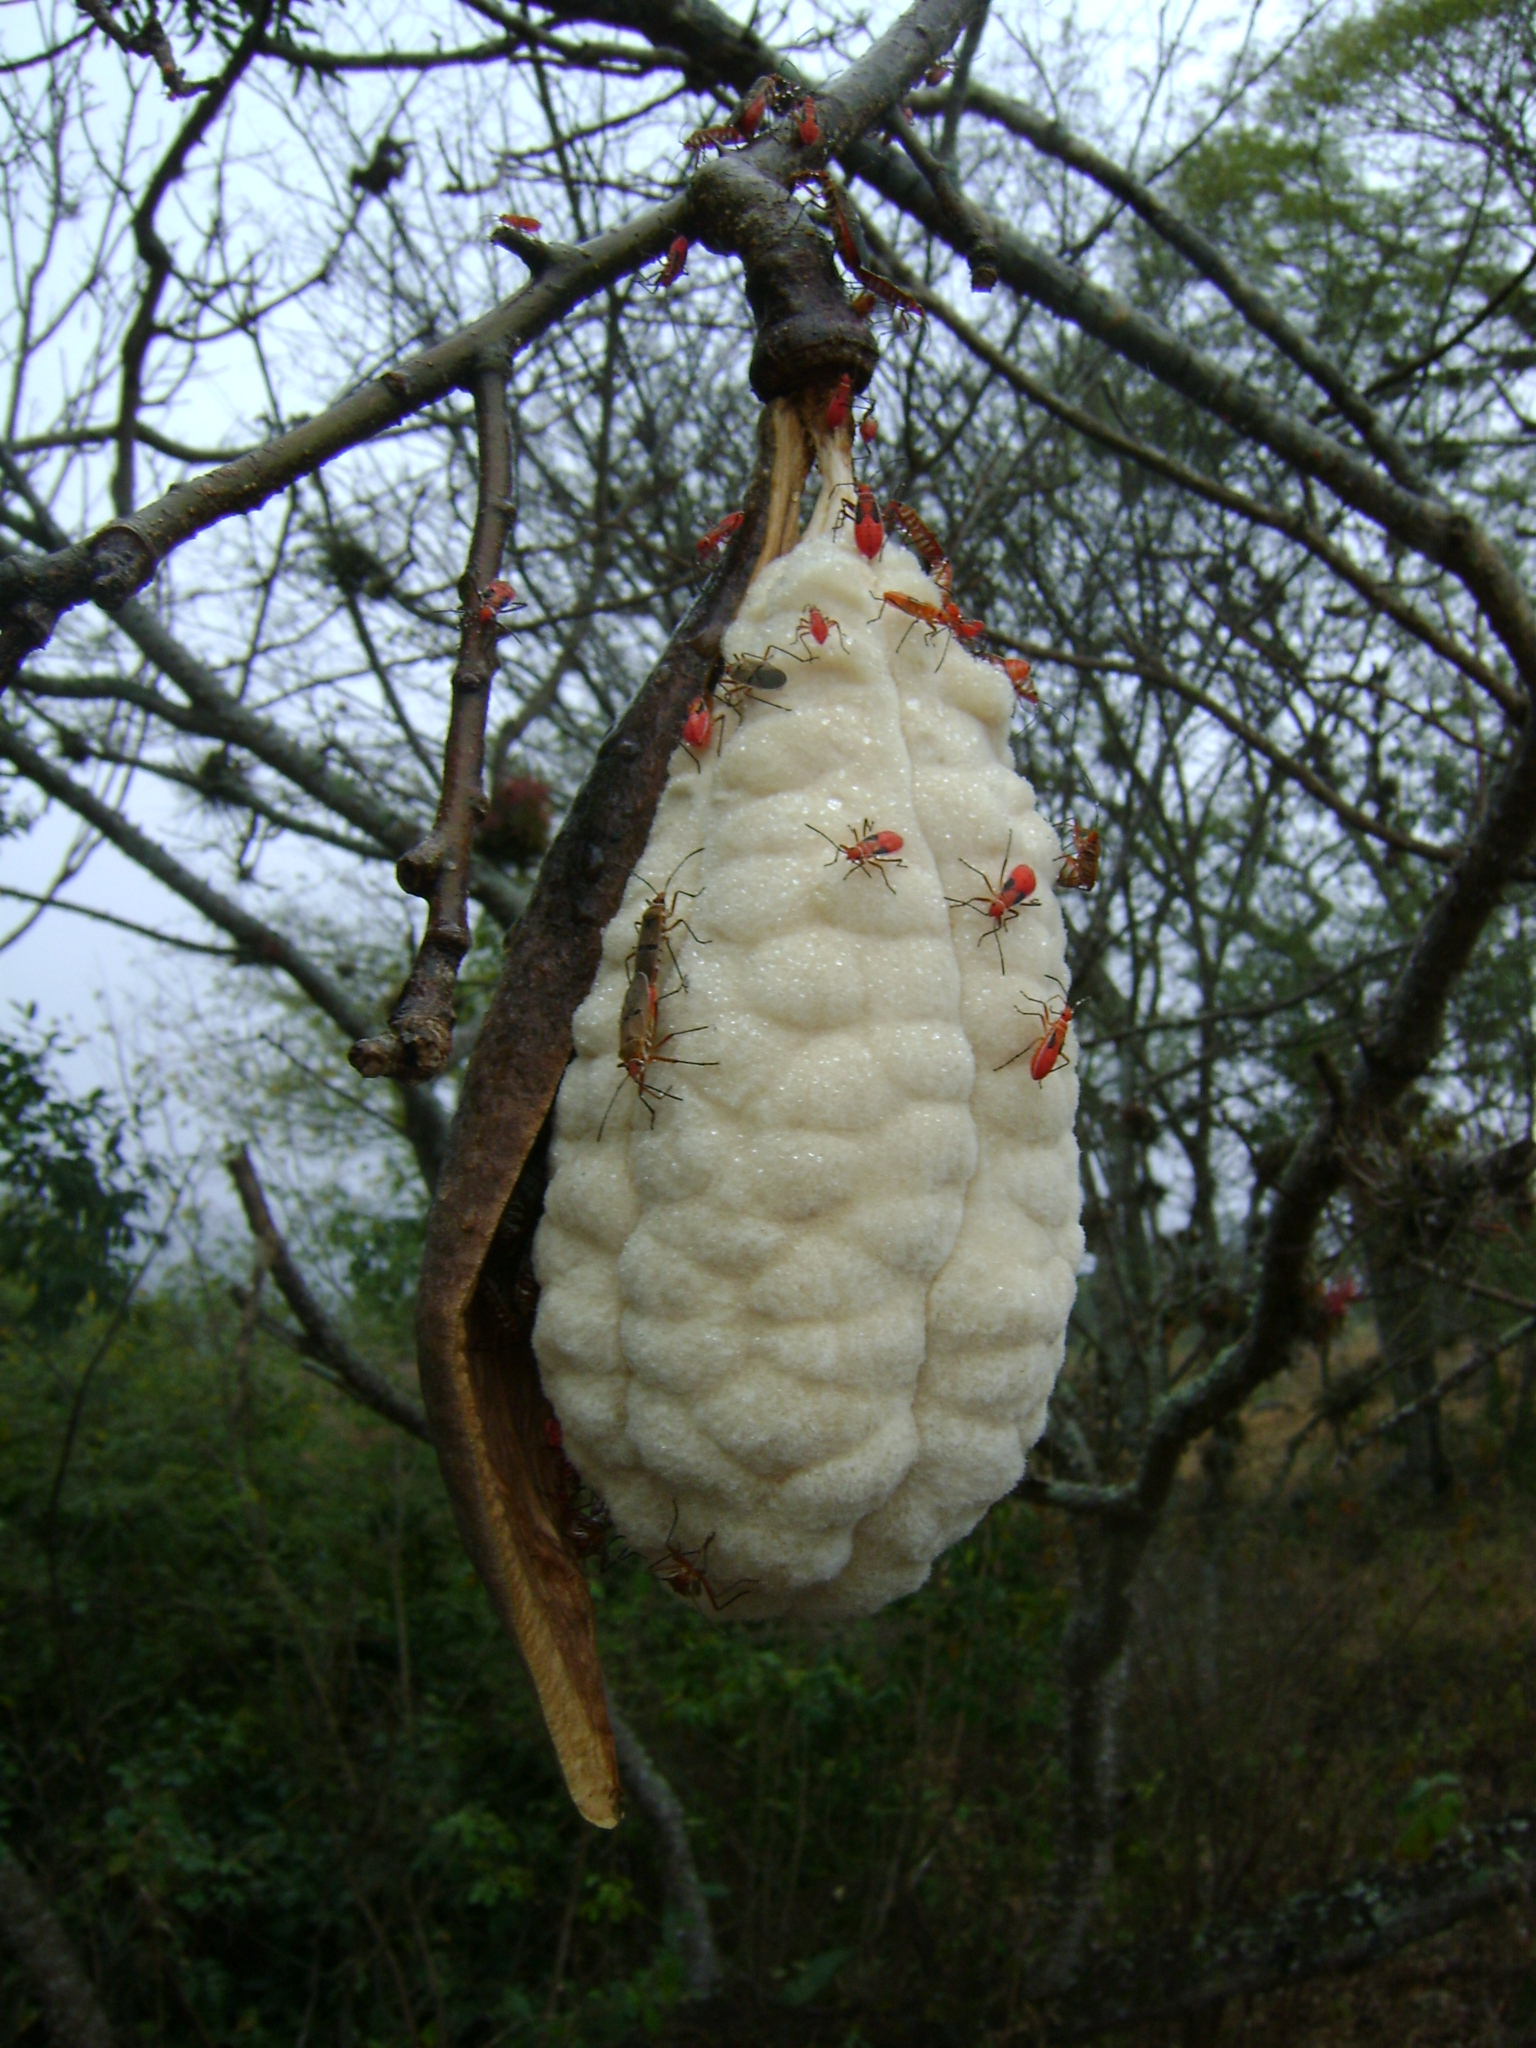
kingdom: Animalia
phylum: Arthropoda
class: Insecta
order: Hemiptera
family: Pyrrhocoridae
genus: Dysdercus
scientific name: Dysdercus bimaculatus
